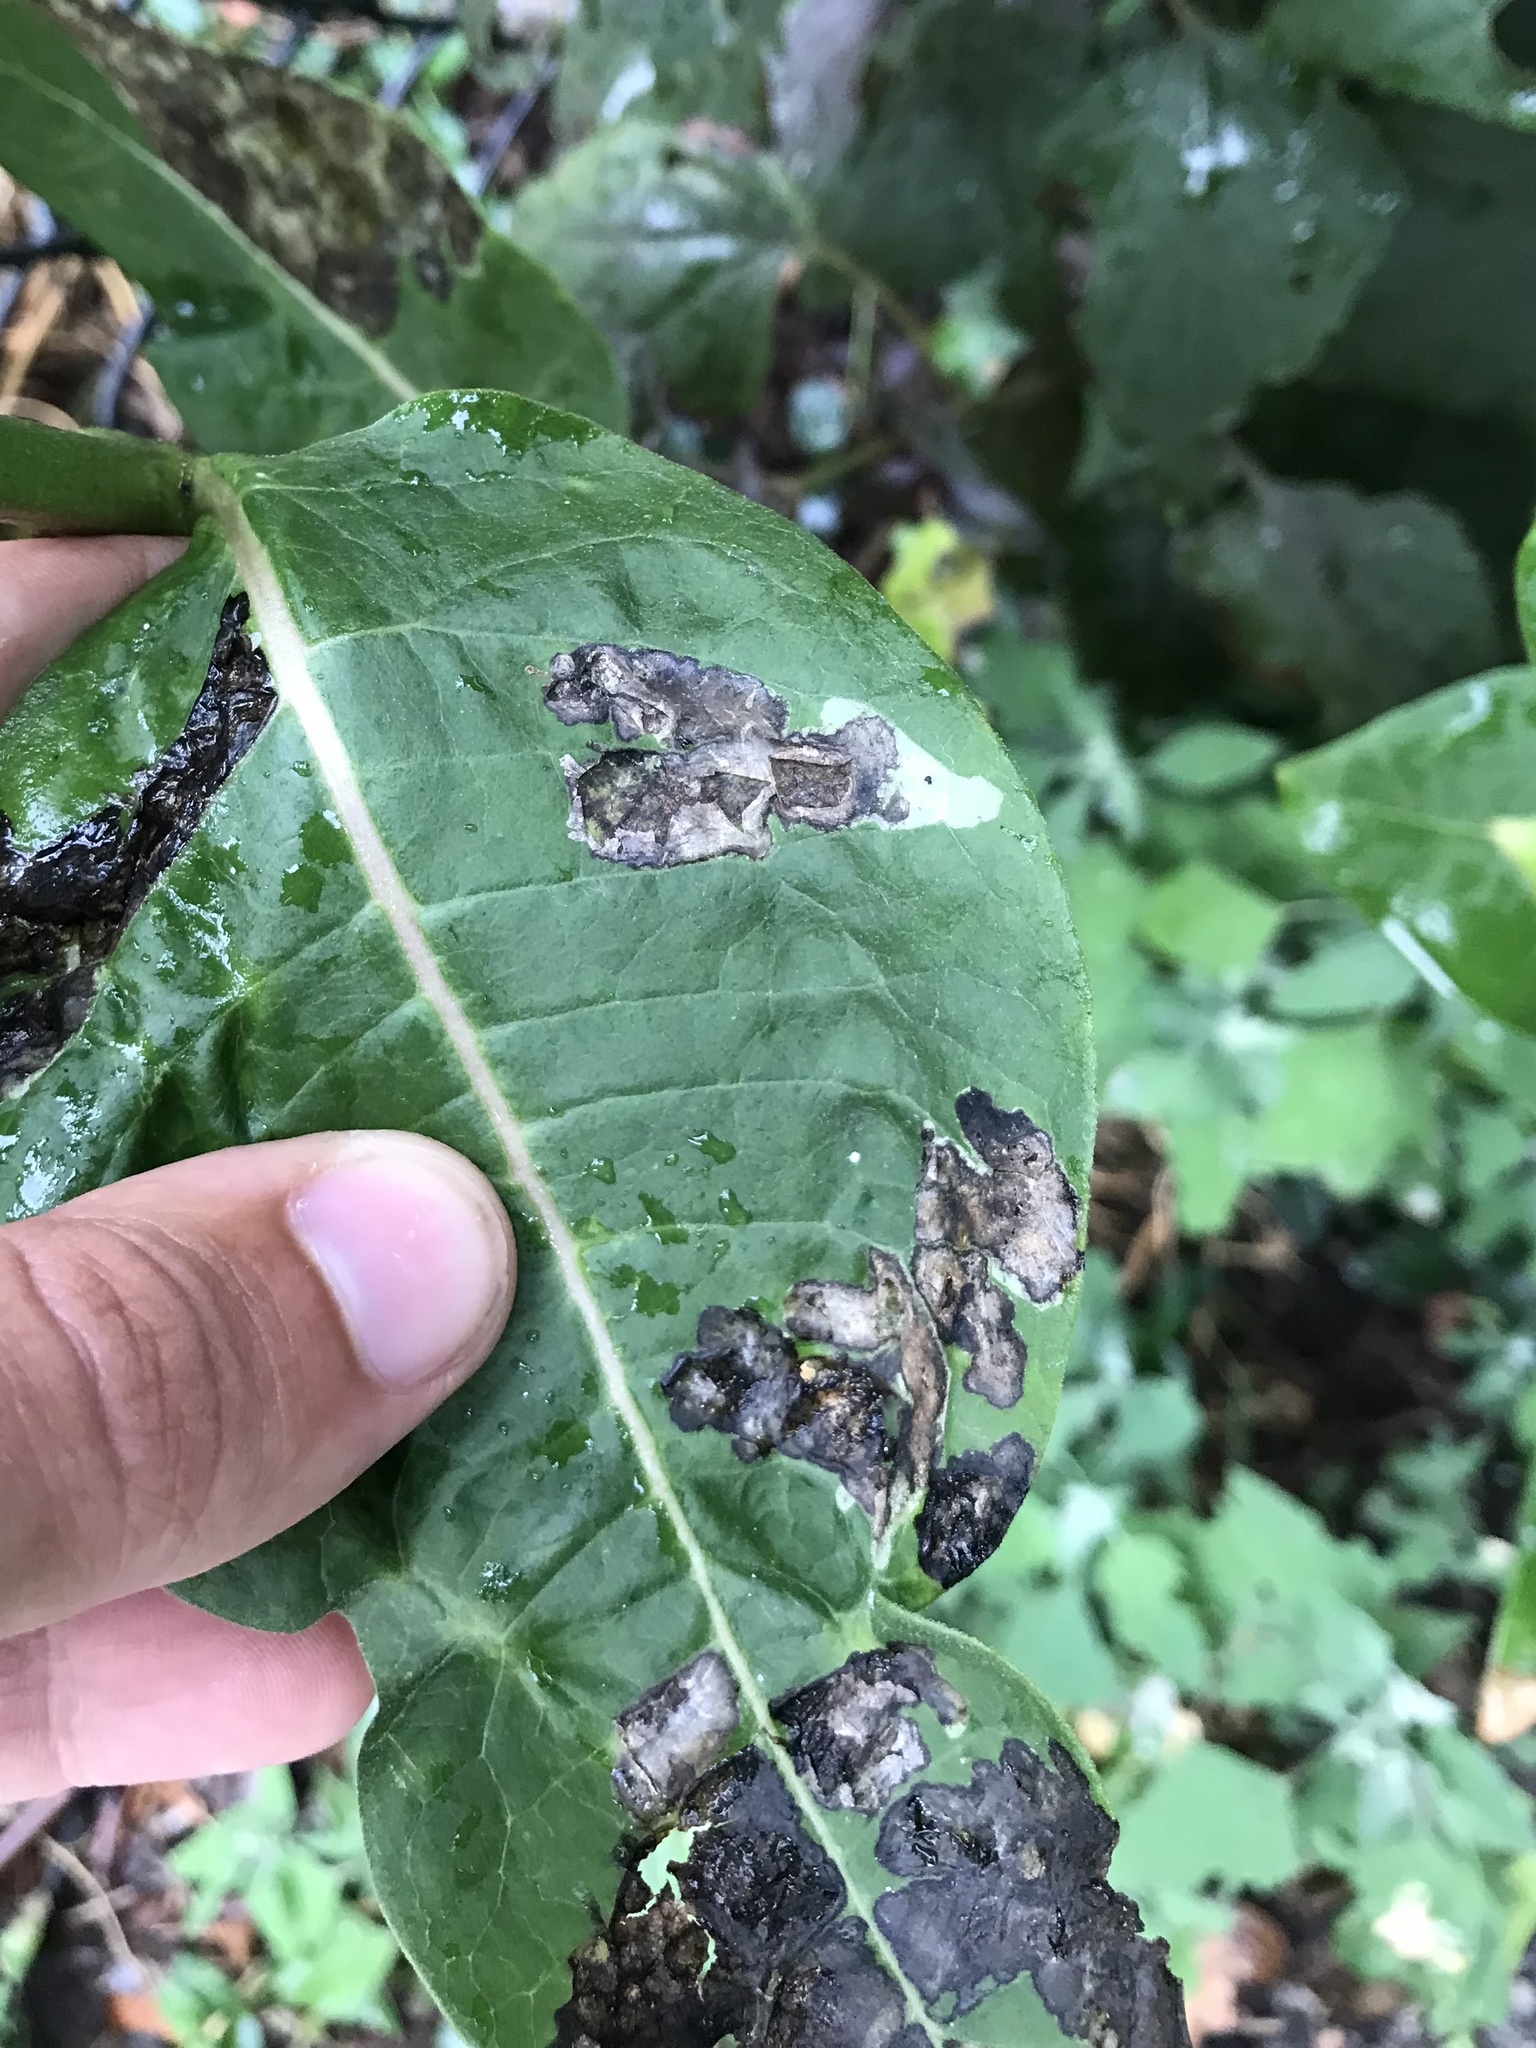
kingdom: Animalia
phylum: Arthropoda
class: Insecta
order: Diptera
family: Agromyzidae
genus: Liriomyza
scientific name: Liriomyza asclepiadis
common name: Milkweed leaf-miner fly
